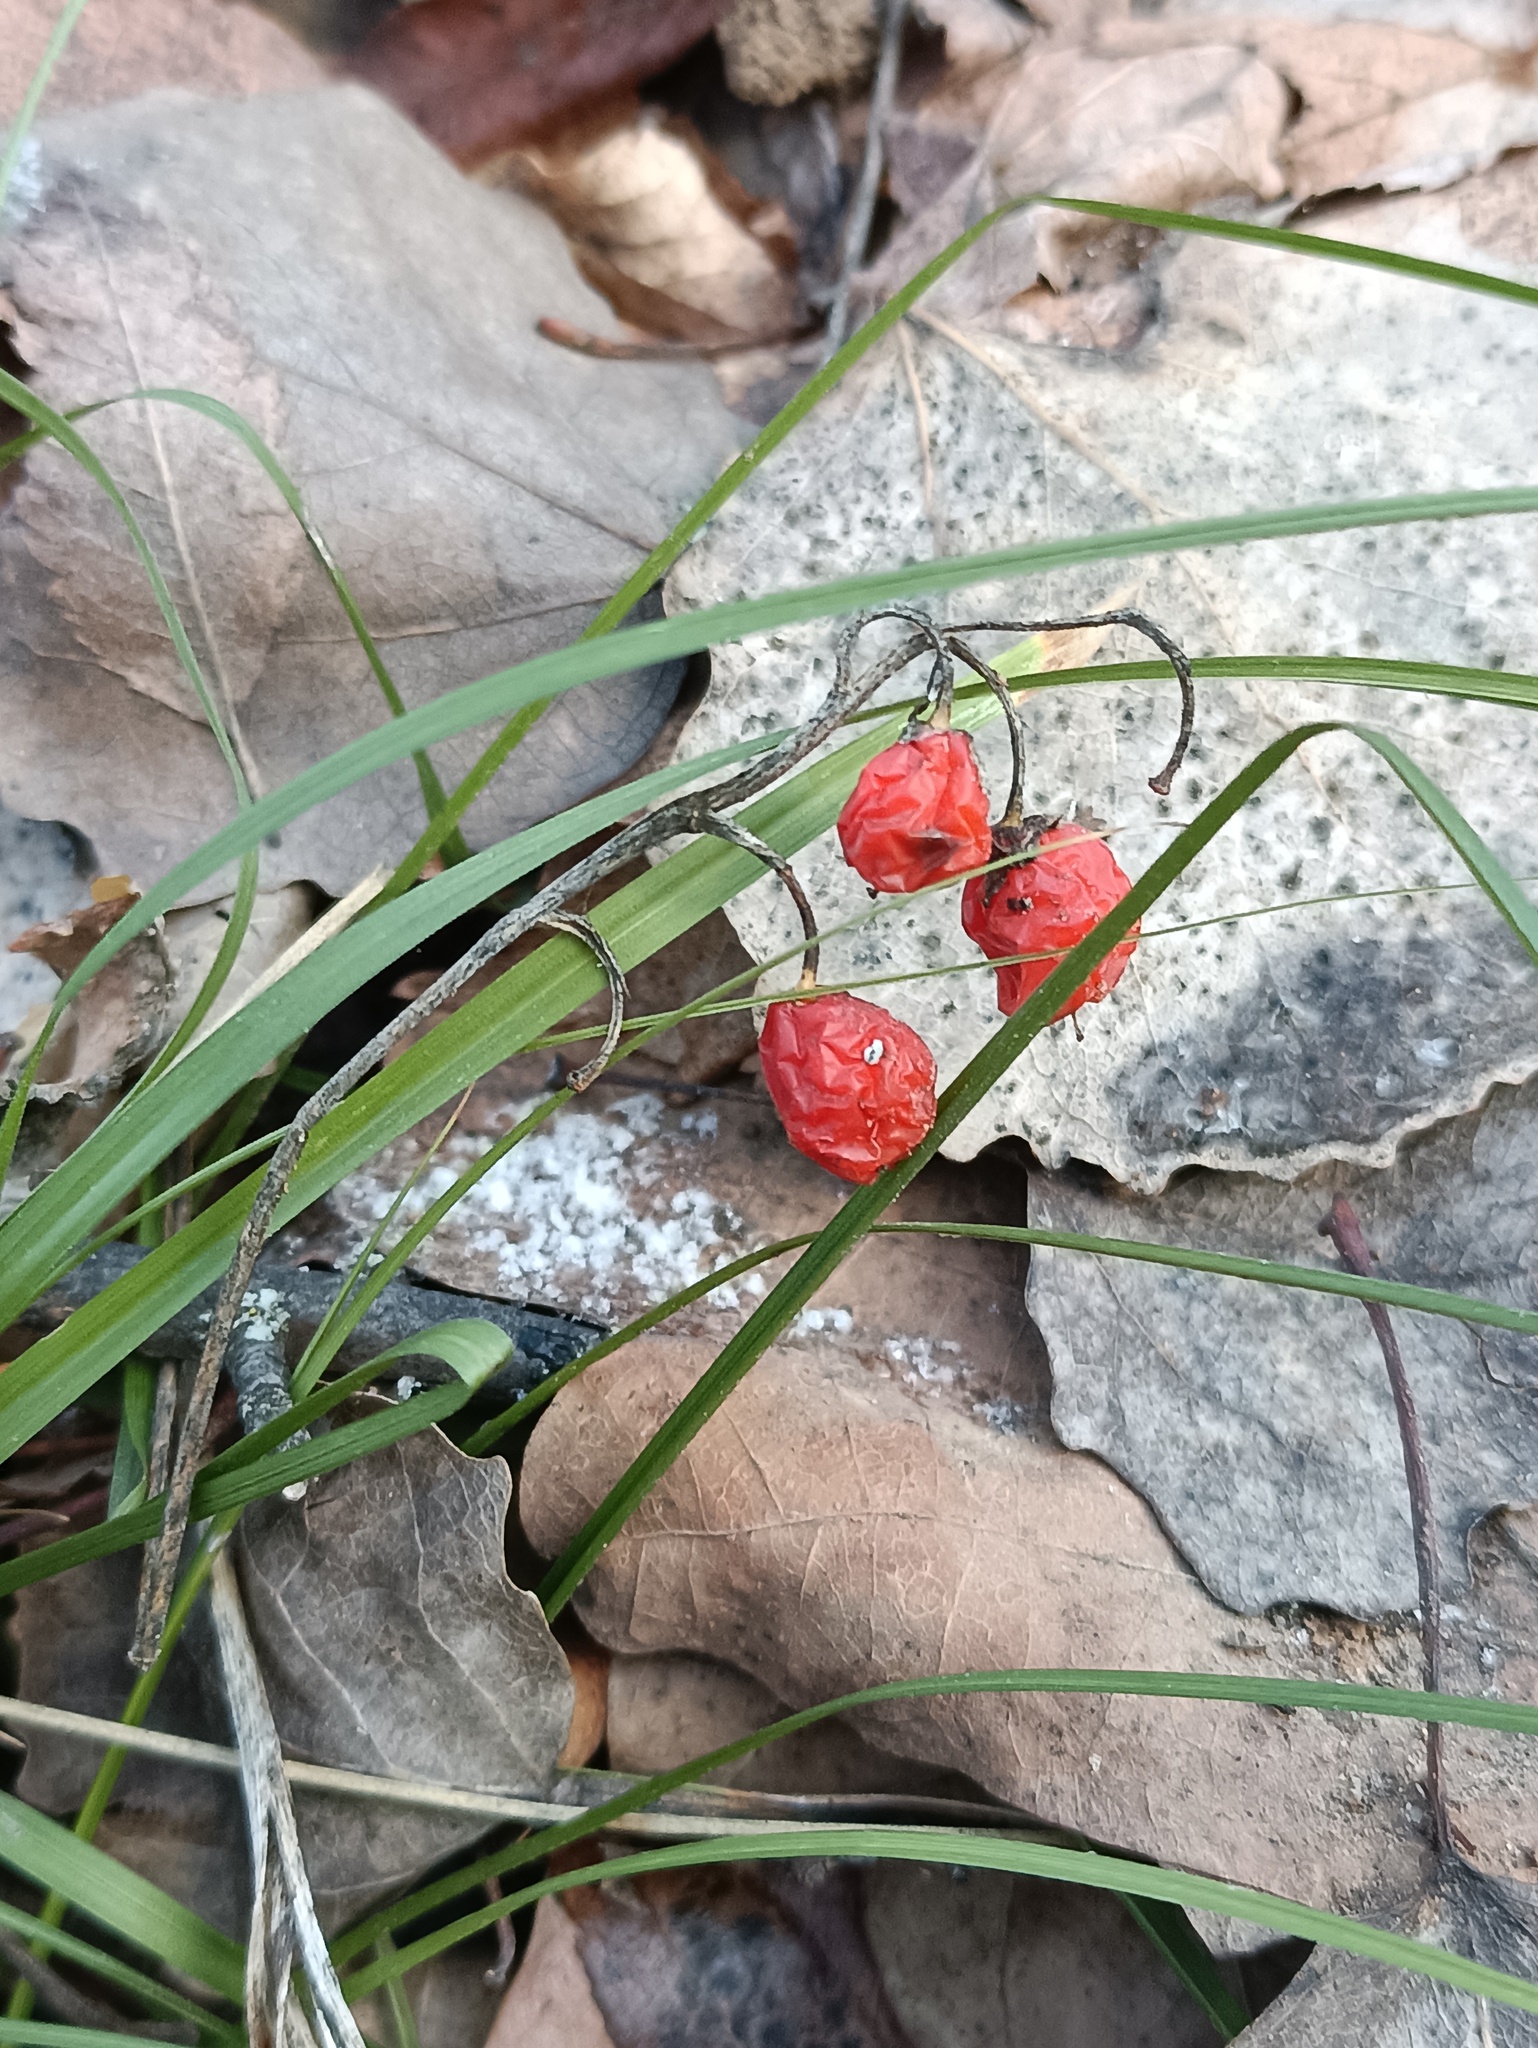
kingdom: Plantae
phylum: Tracheophyta
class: Liliopsida
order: Asparagales
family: Asparagaceae
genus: Convallaria
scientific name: Convallaria majalis
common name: Lily-of-the-valley
